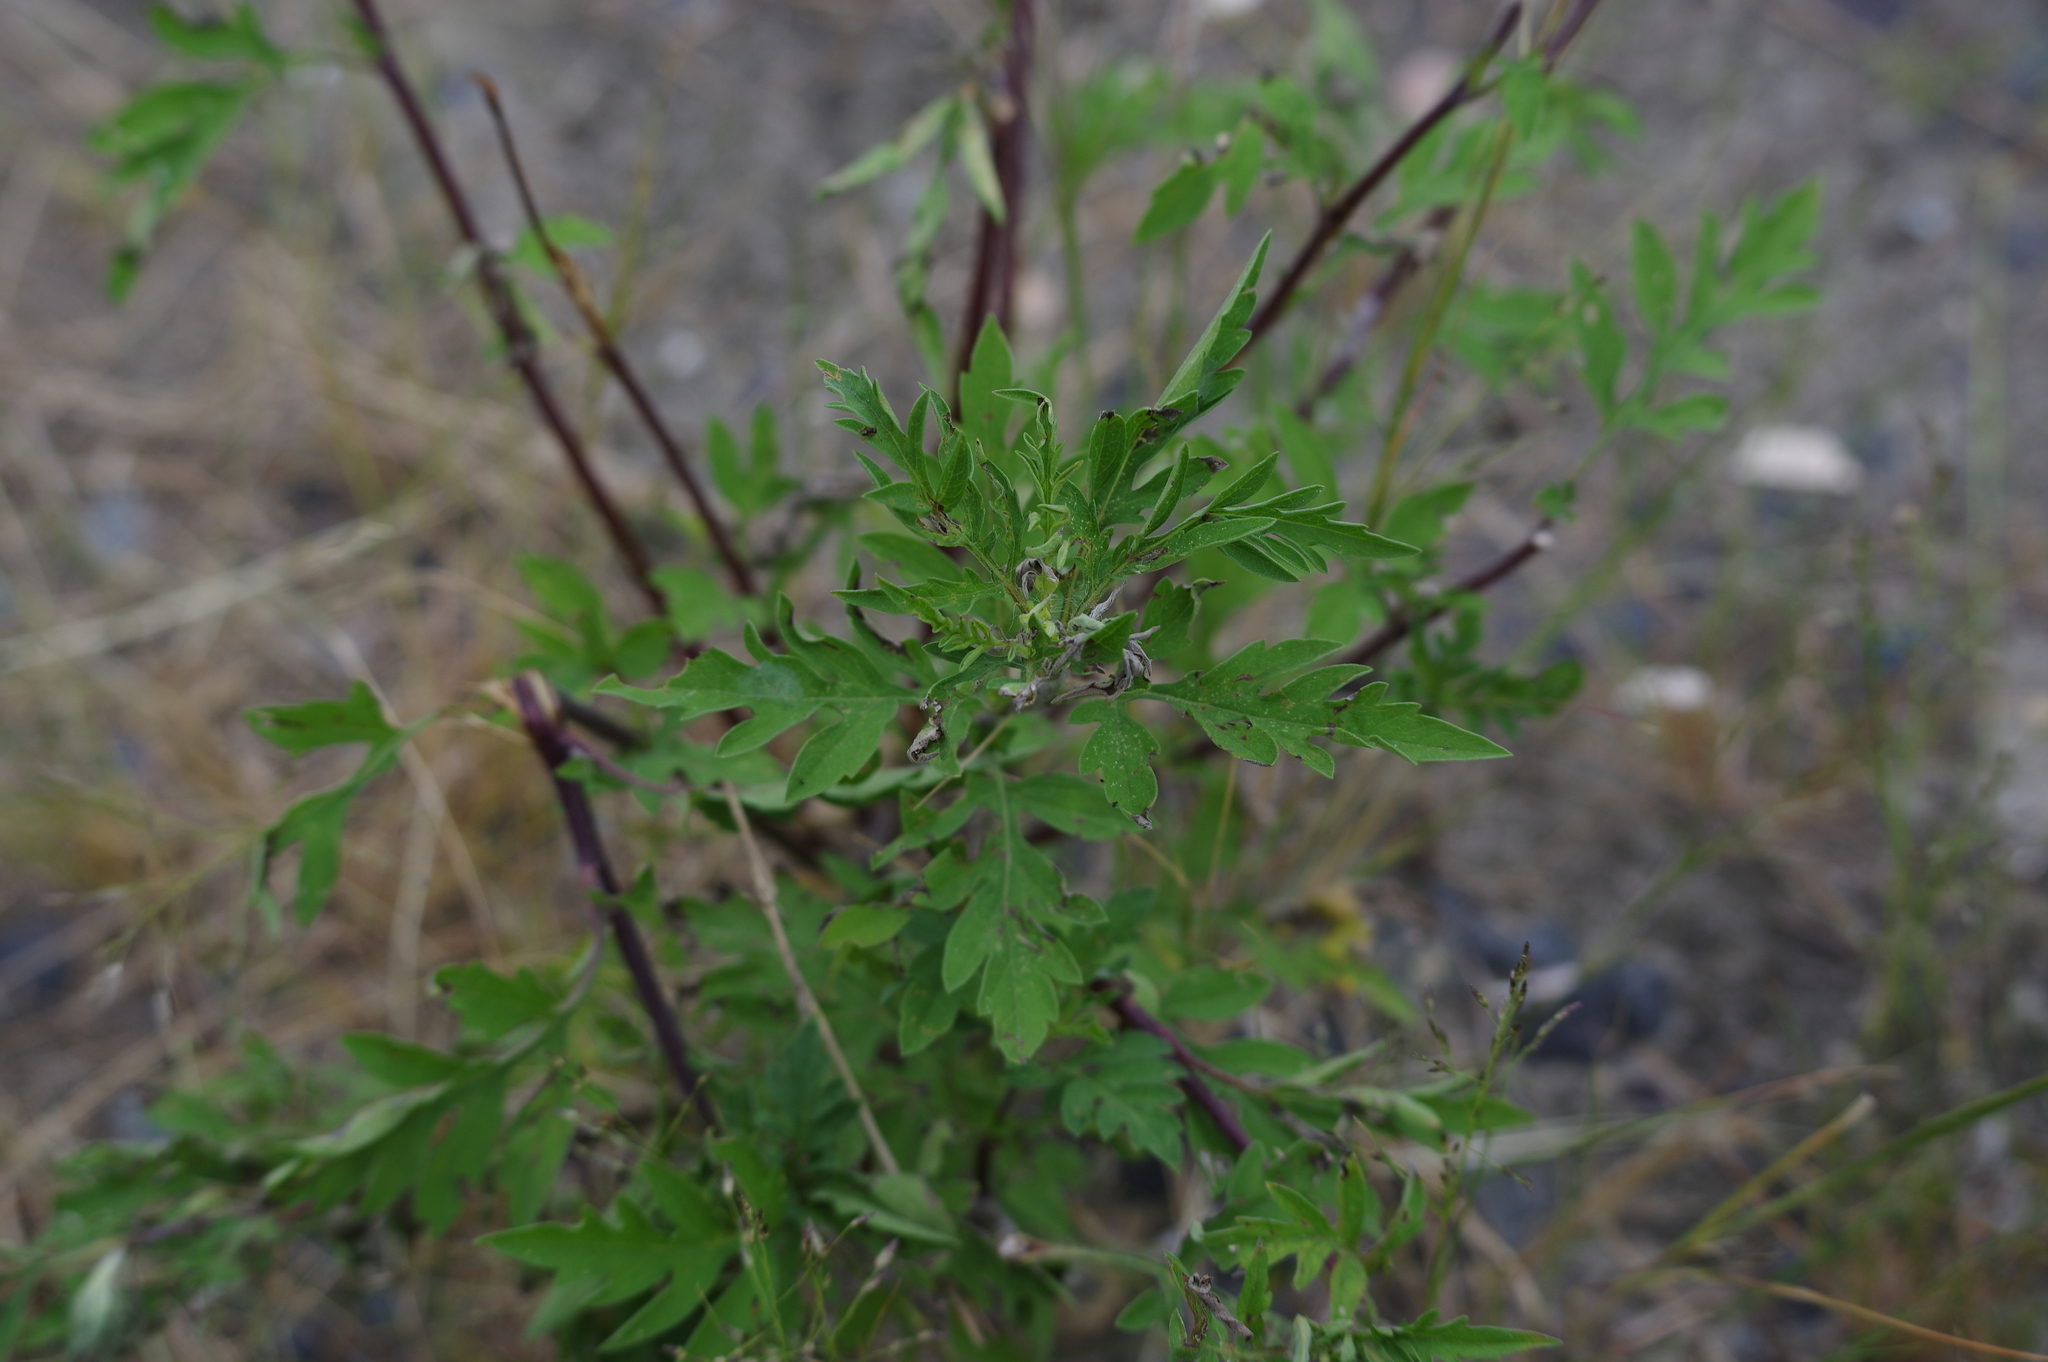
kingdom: Plantae
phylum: Tracheophyta
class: Magnoliopsida
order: Asterales
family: Asteraceae
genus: Ambrosia
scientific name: Ambrosia artemisiifolia
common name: Annual ragweed
